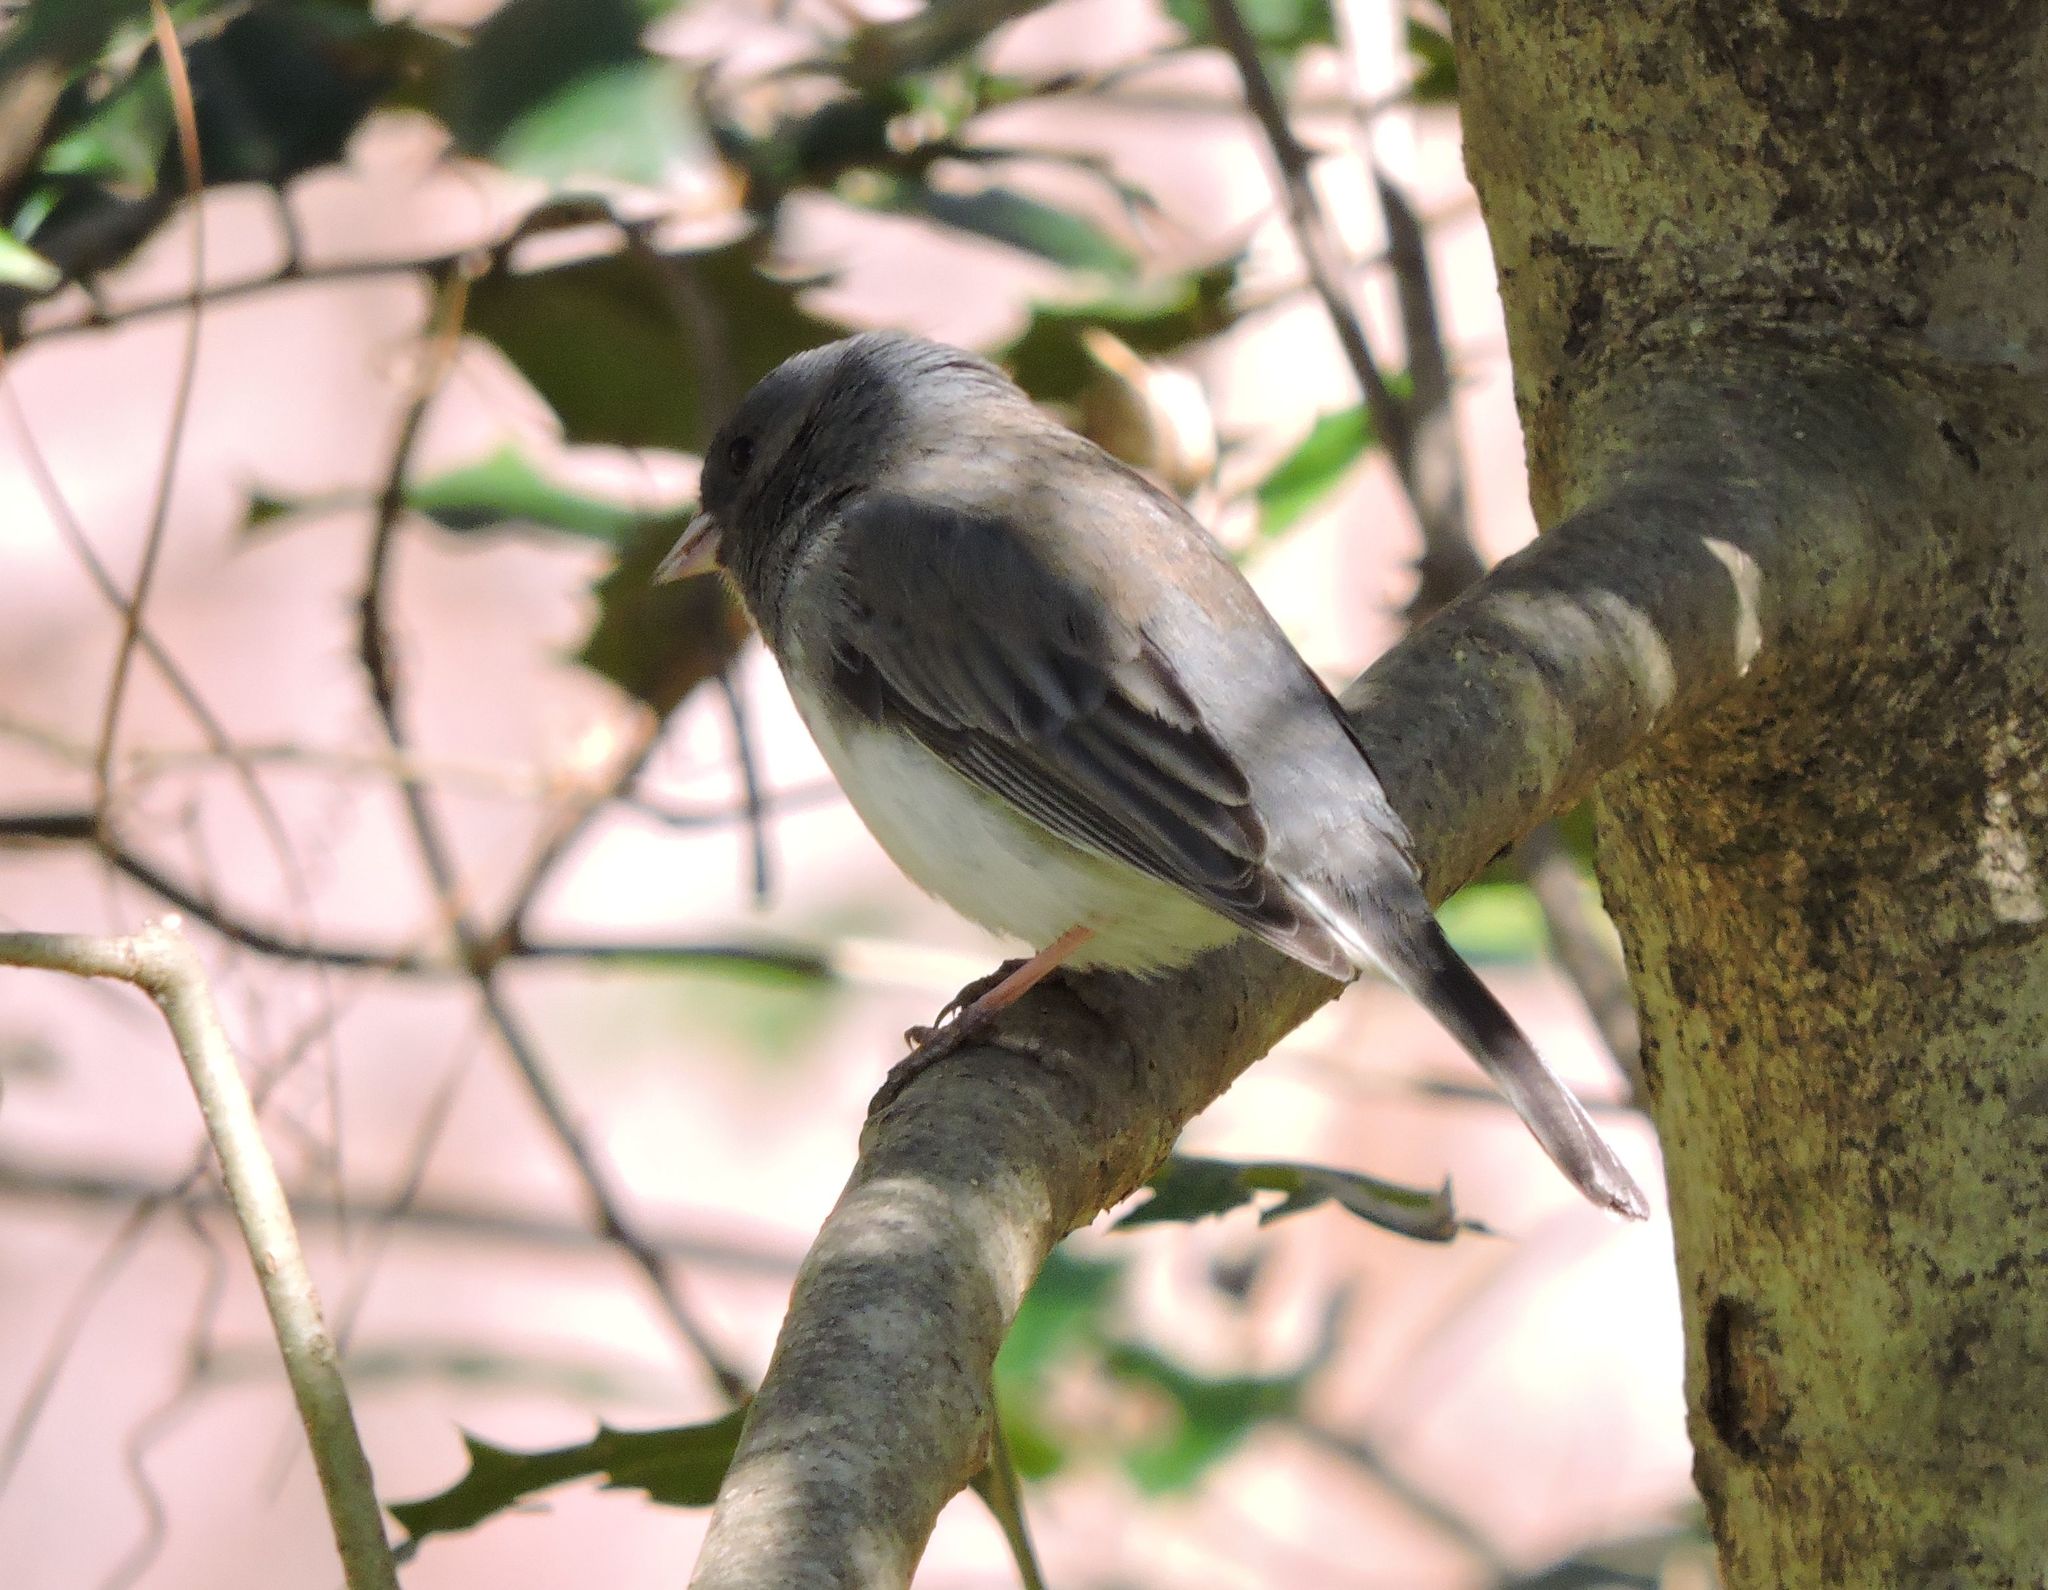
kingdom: Animalia
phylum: Chordata
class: Aves
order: Passeriformes
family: Passerellidae
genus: Junco
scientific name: Junco hyemalis
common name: Dark-eyed junco
